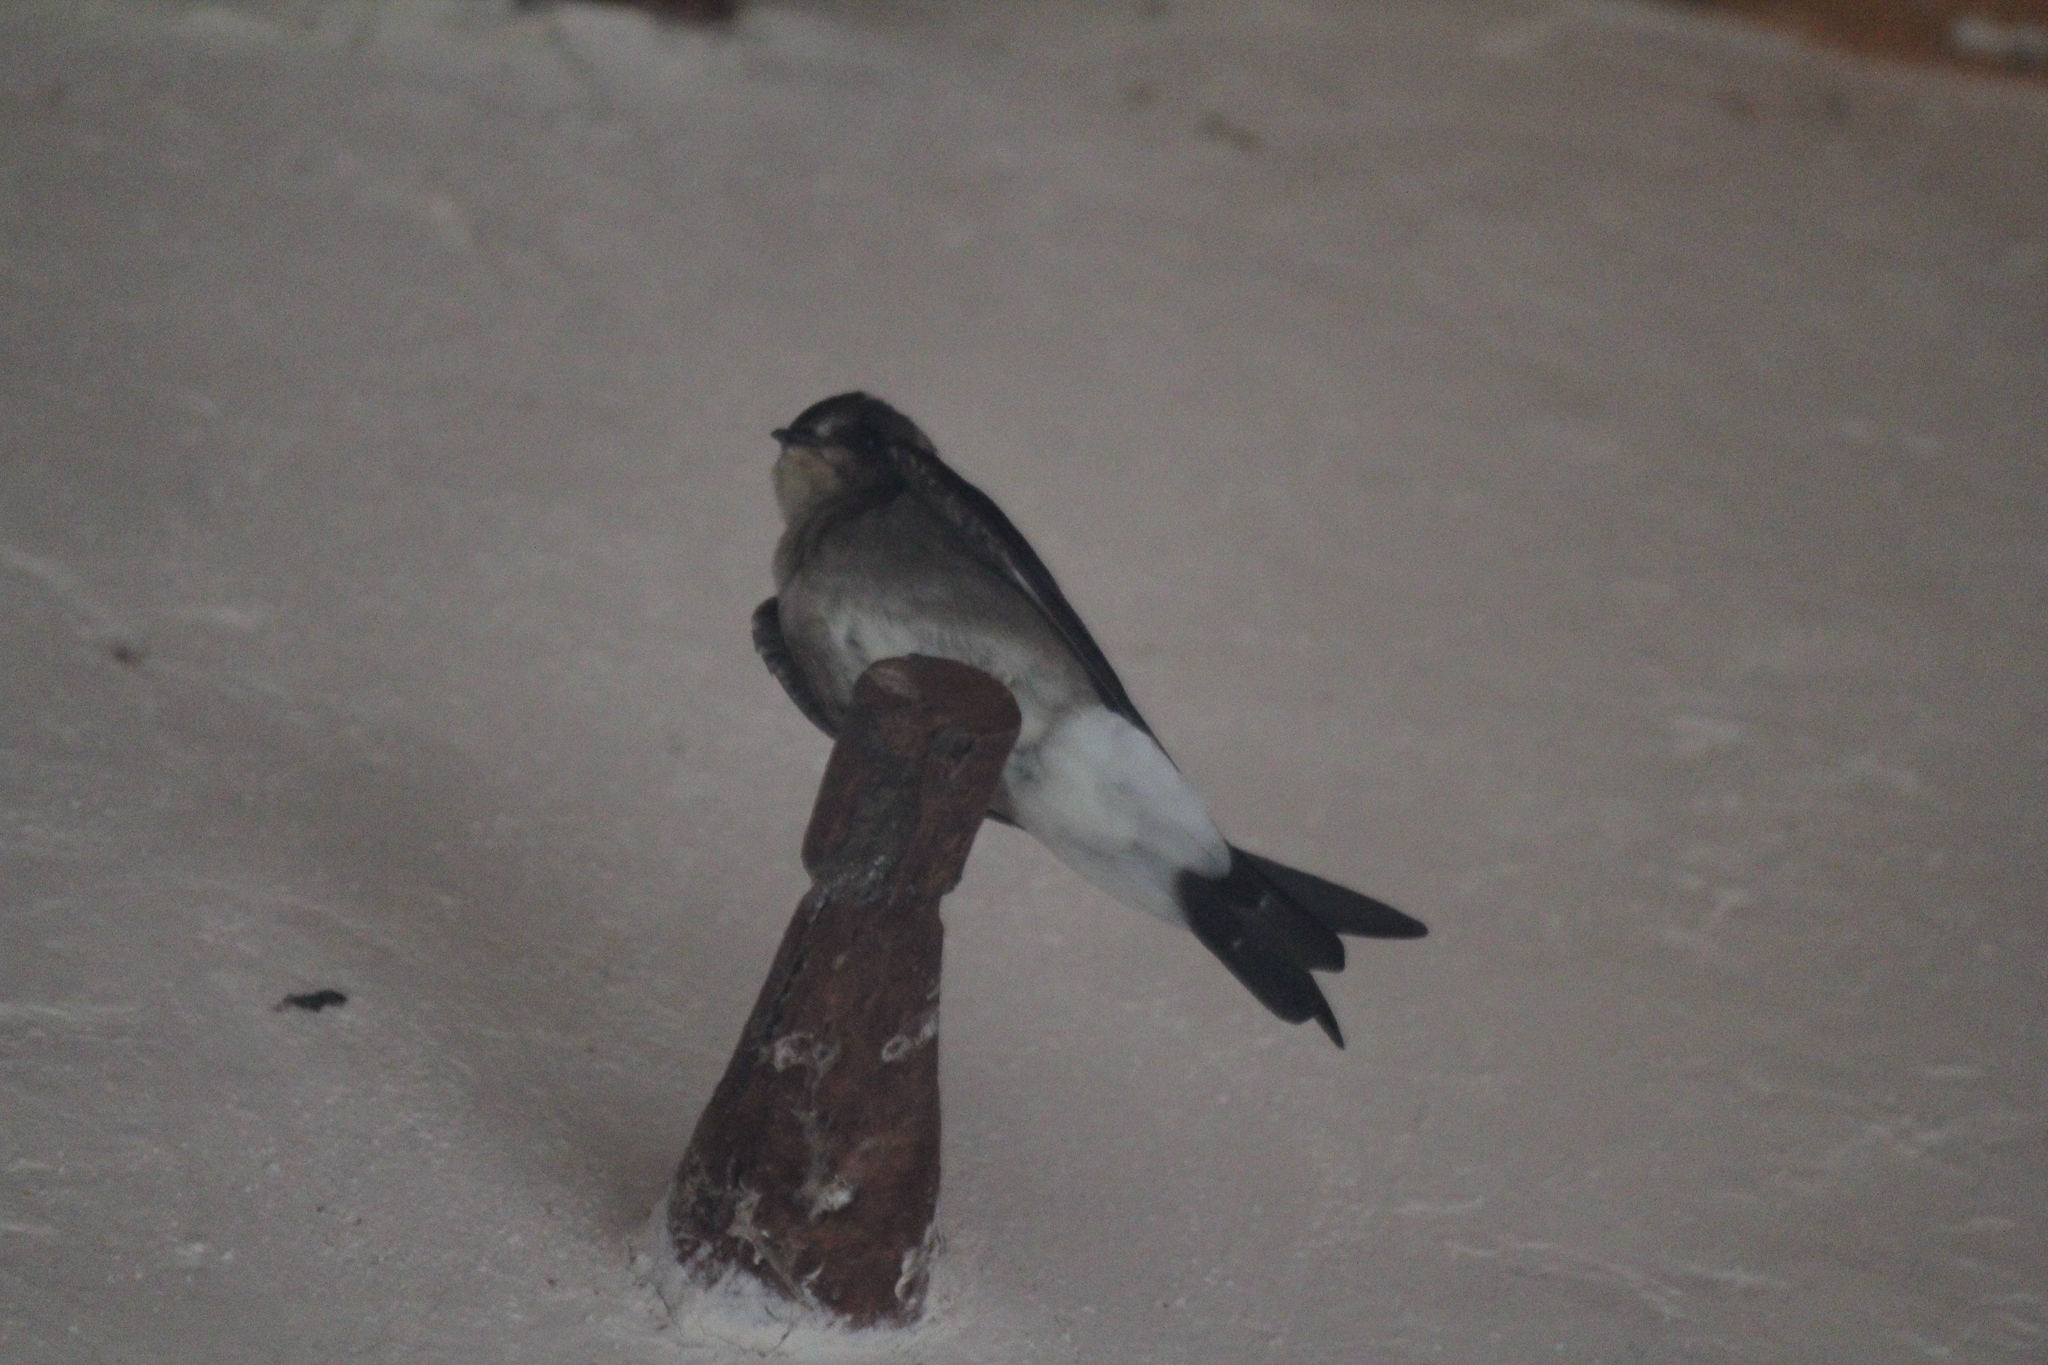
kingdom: Animalia
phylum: Chordata
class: Aves
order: Passeriformes
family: Hirundinidae
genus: Stelgidopteryx
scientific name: Stelgidopteryx serripennis
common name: Northern rough-winged swallow
